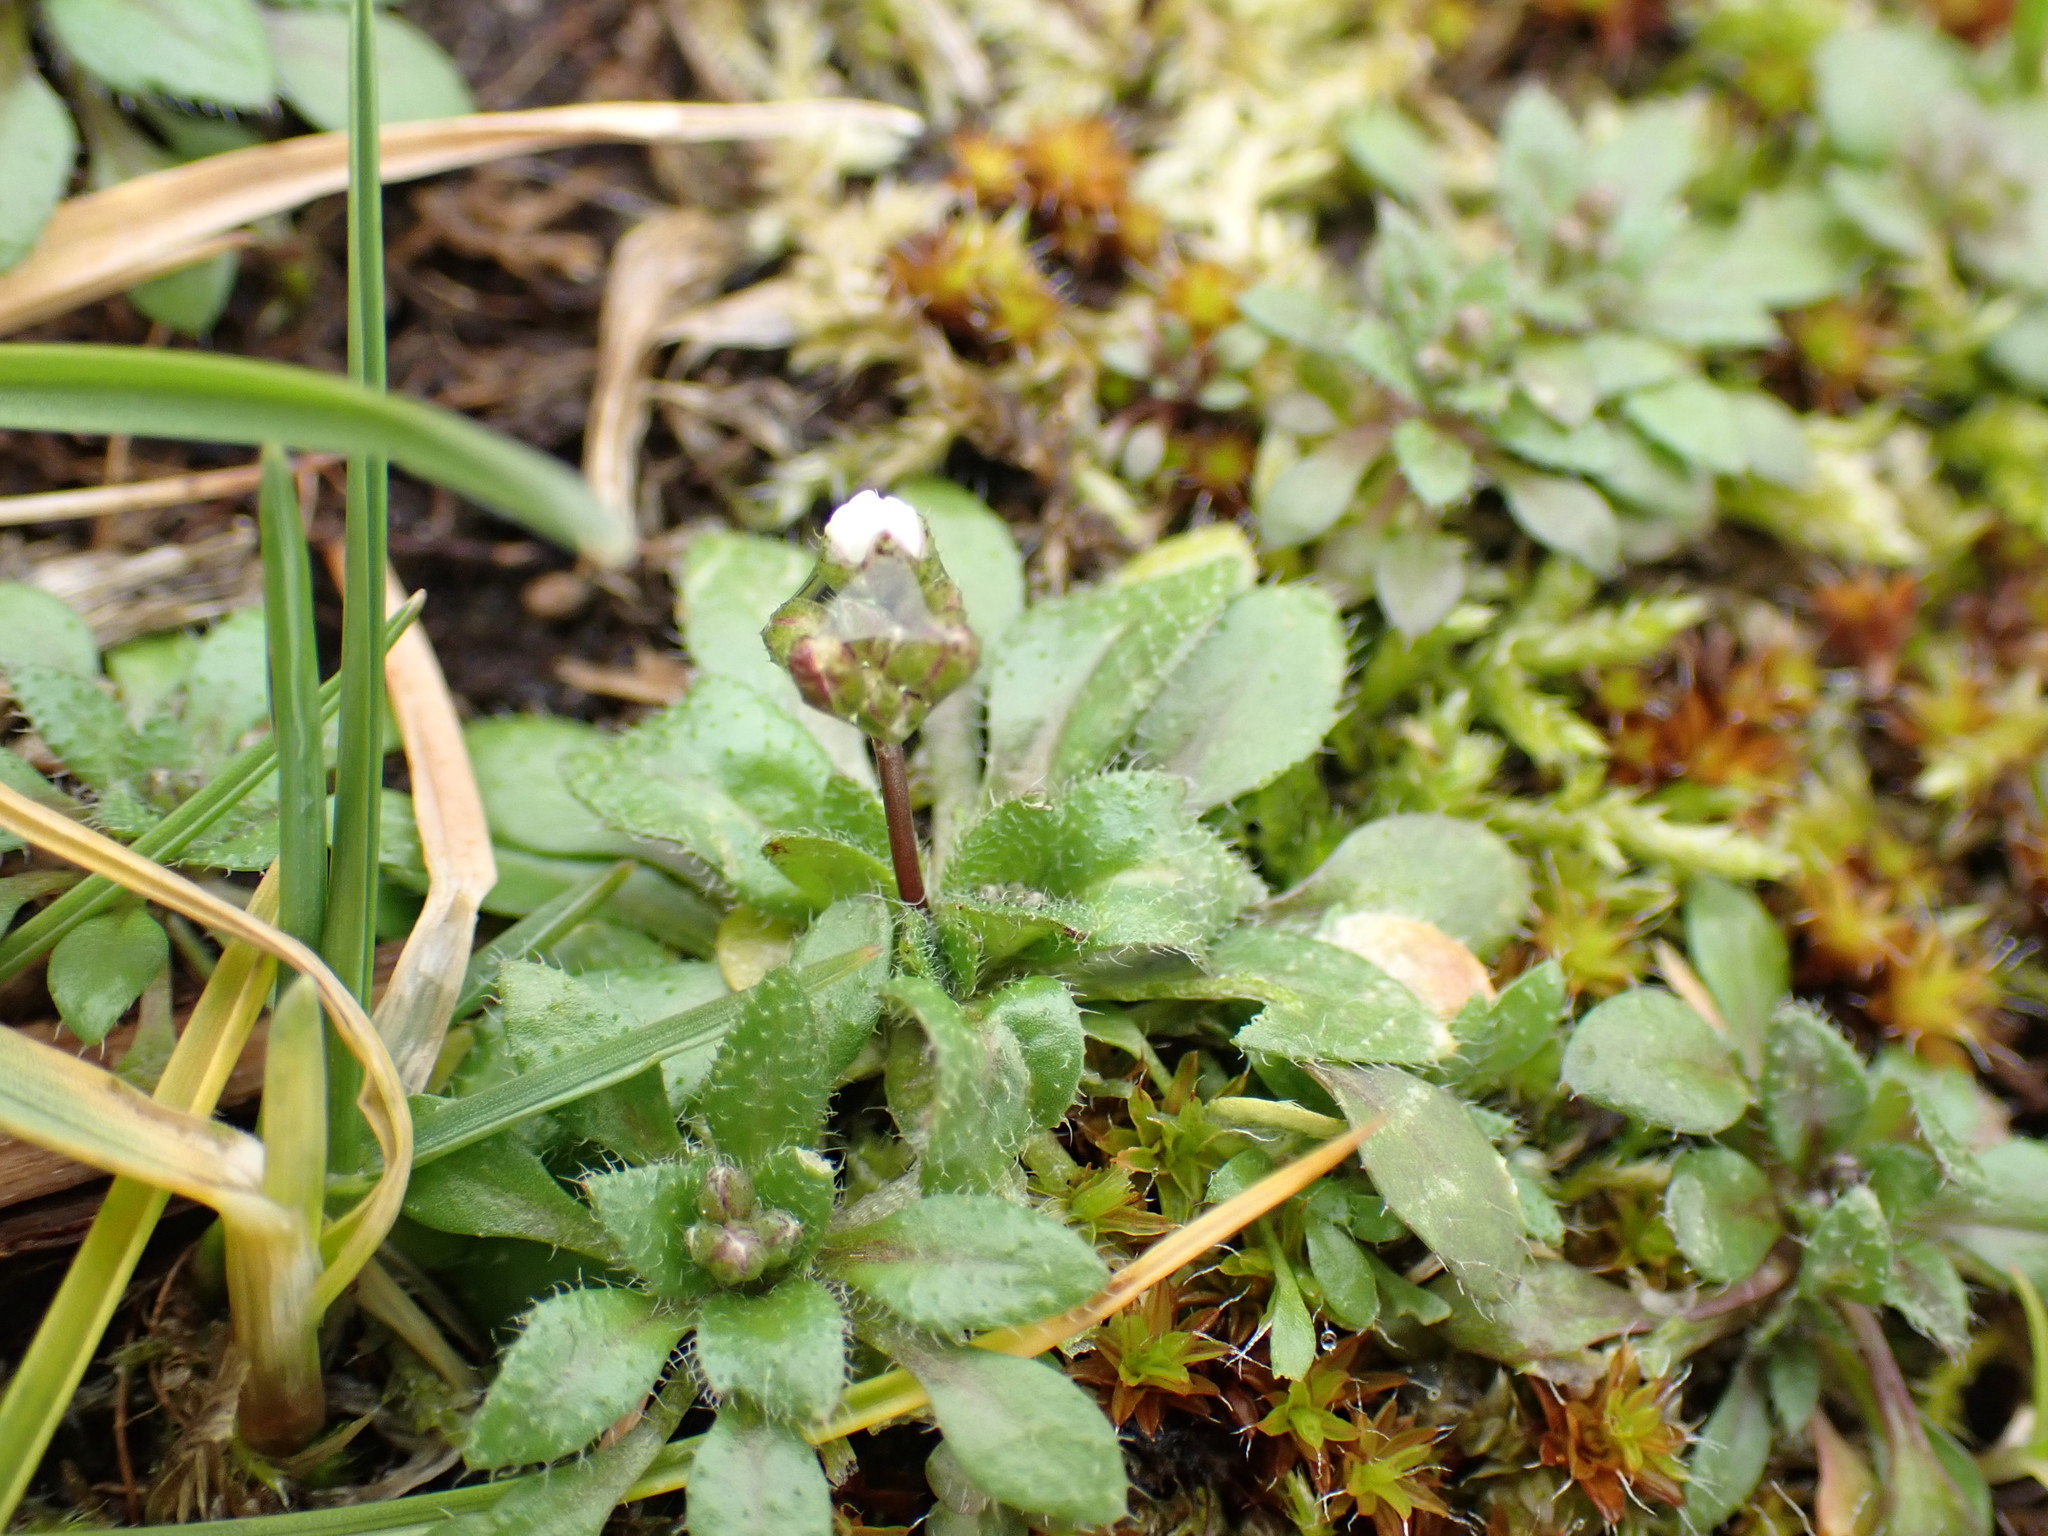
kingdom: Plantae
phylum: Tracheophyta
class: Magnoliopsida
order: Brassicales
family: Brassicaceae
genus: Draba
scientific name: Draba verna
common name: Spring draba
